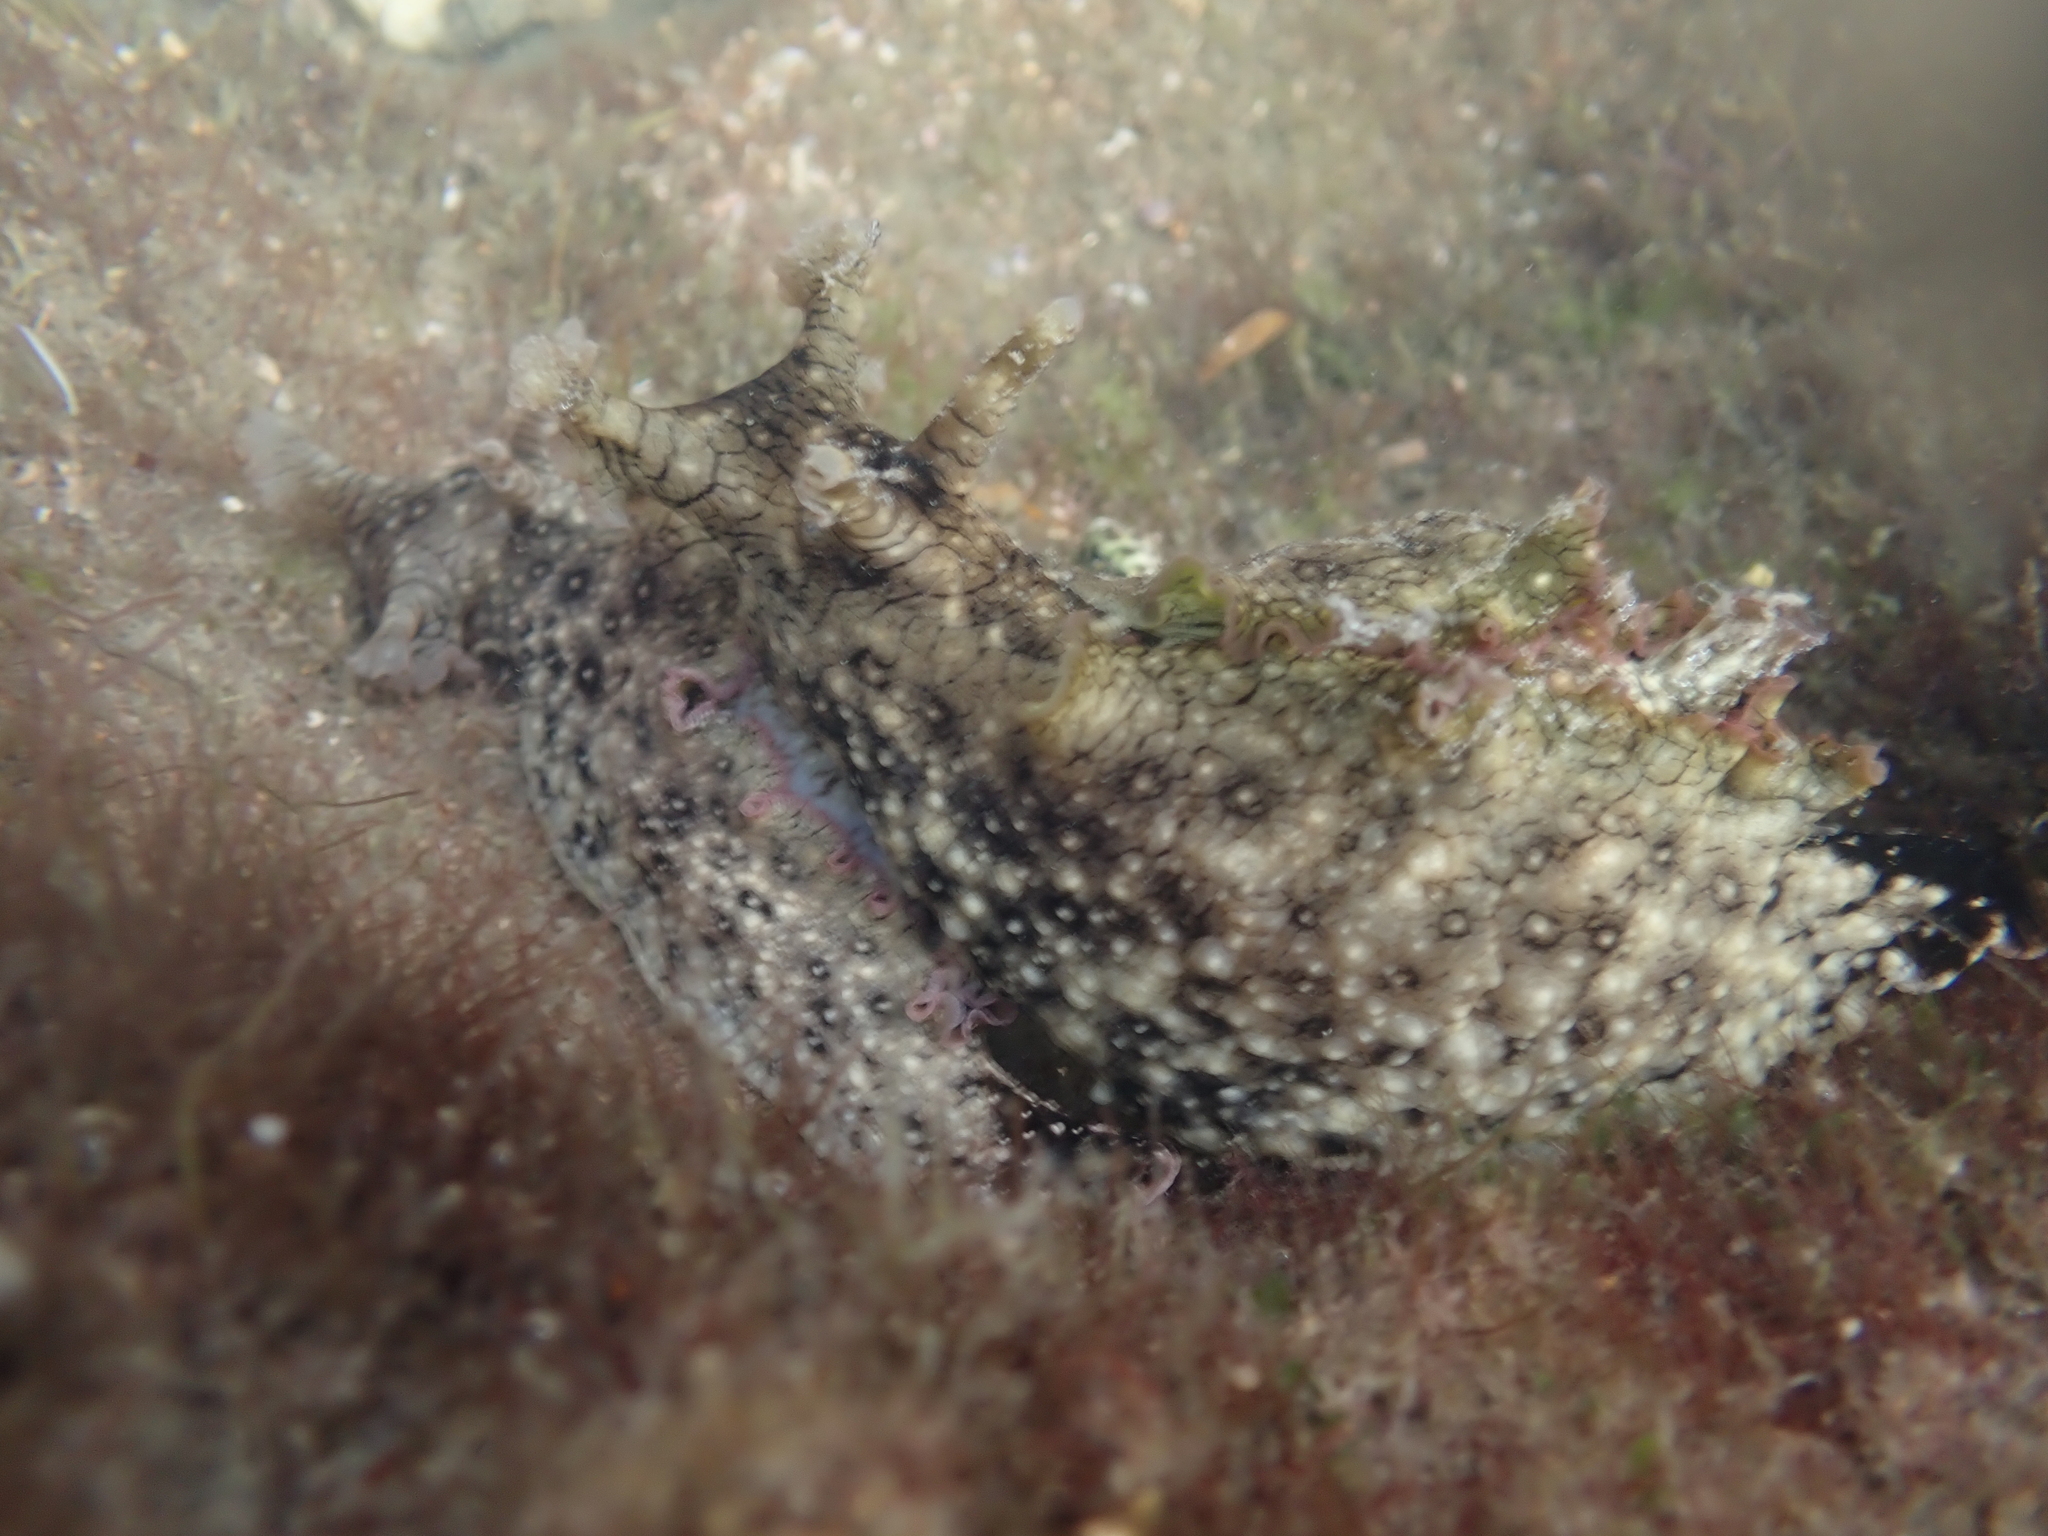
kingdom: Animalia
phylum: Mollusca
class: Gastropoda
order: Aplysiida
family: Aplysiidae
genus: Aplysia
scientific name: Aplysia argus
